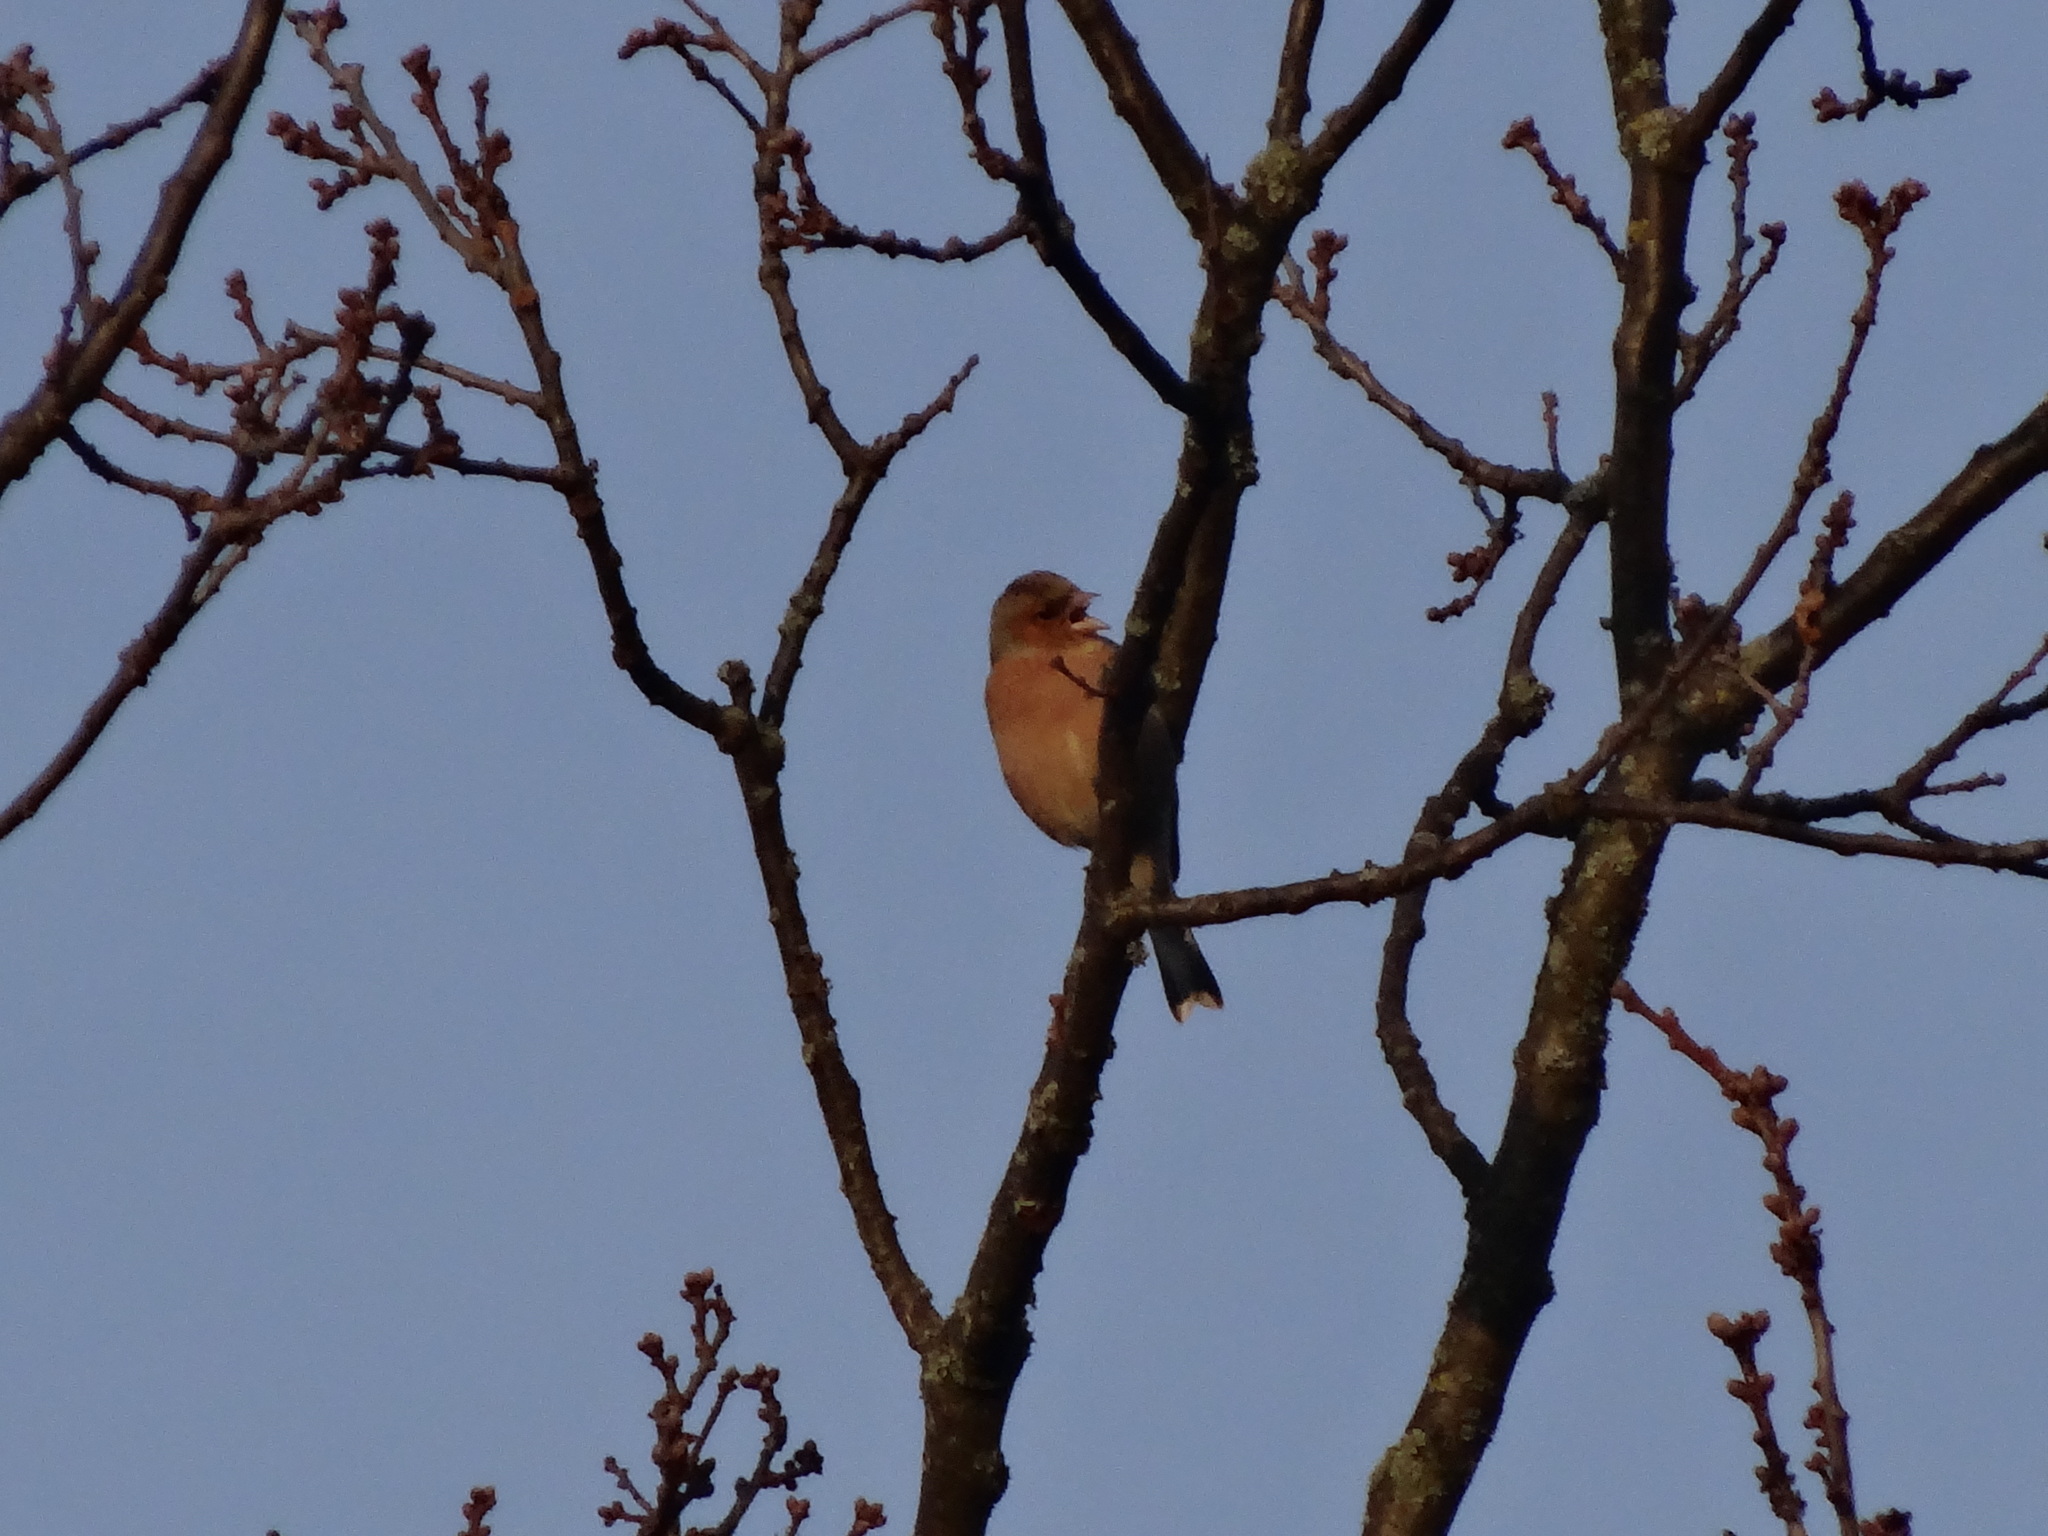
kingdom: Animalia
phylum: Chordata
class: Aves
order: Passeriformes
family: Fringillidae
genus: Fringilla
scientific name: Fringilla coelebs
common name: Common chaffinch
